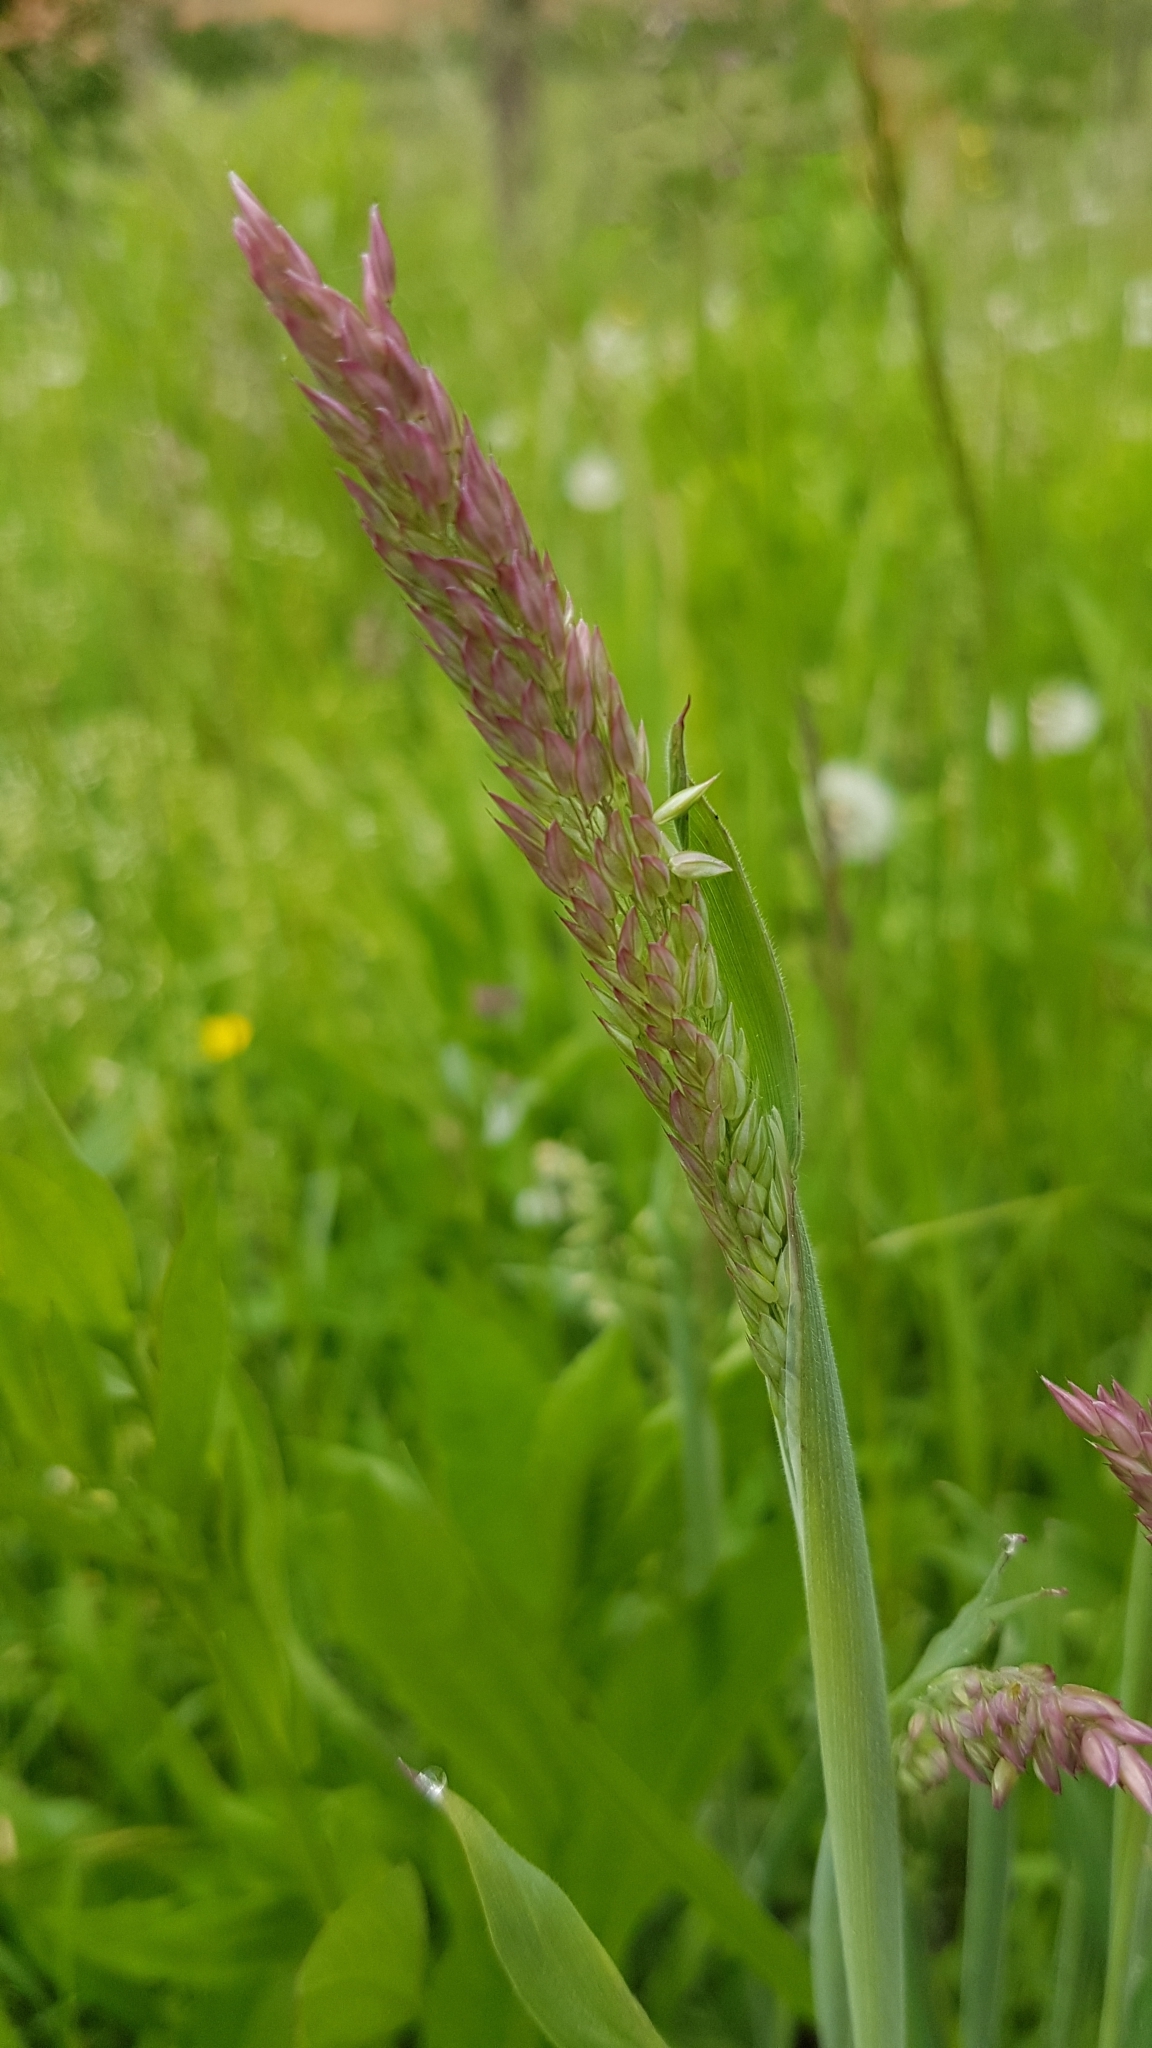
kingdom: Plantae
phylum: Tracheophyta
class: Liliopsida
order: Poales
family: Poaceae
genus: Holcus
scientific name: Holcus mollis
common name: Creeping velvetgrass
